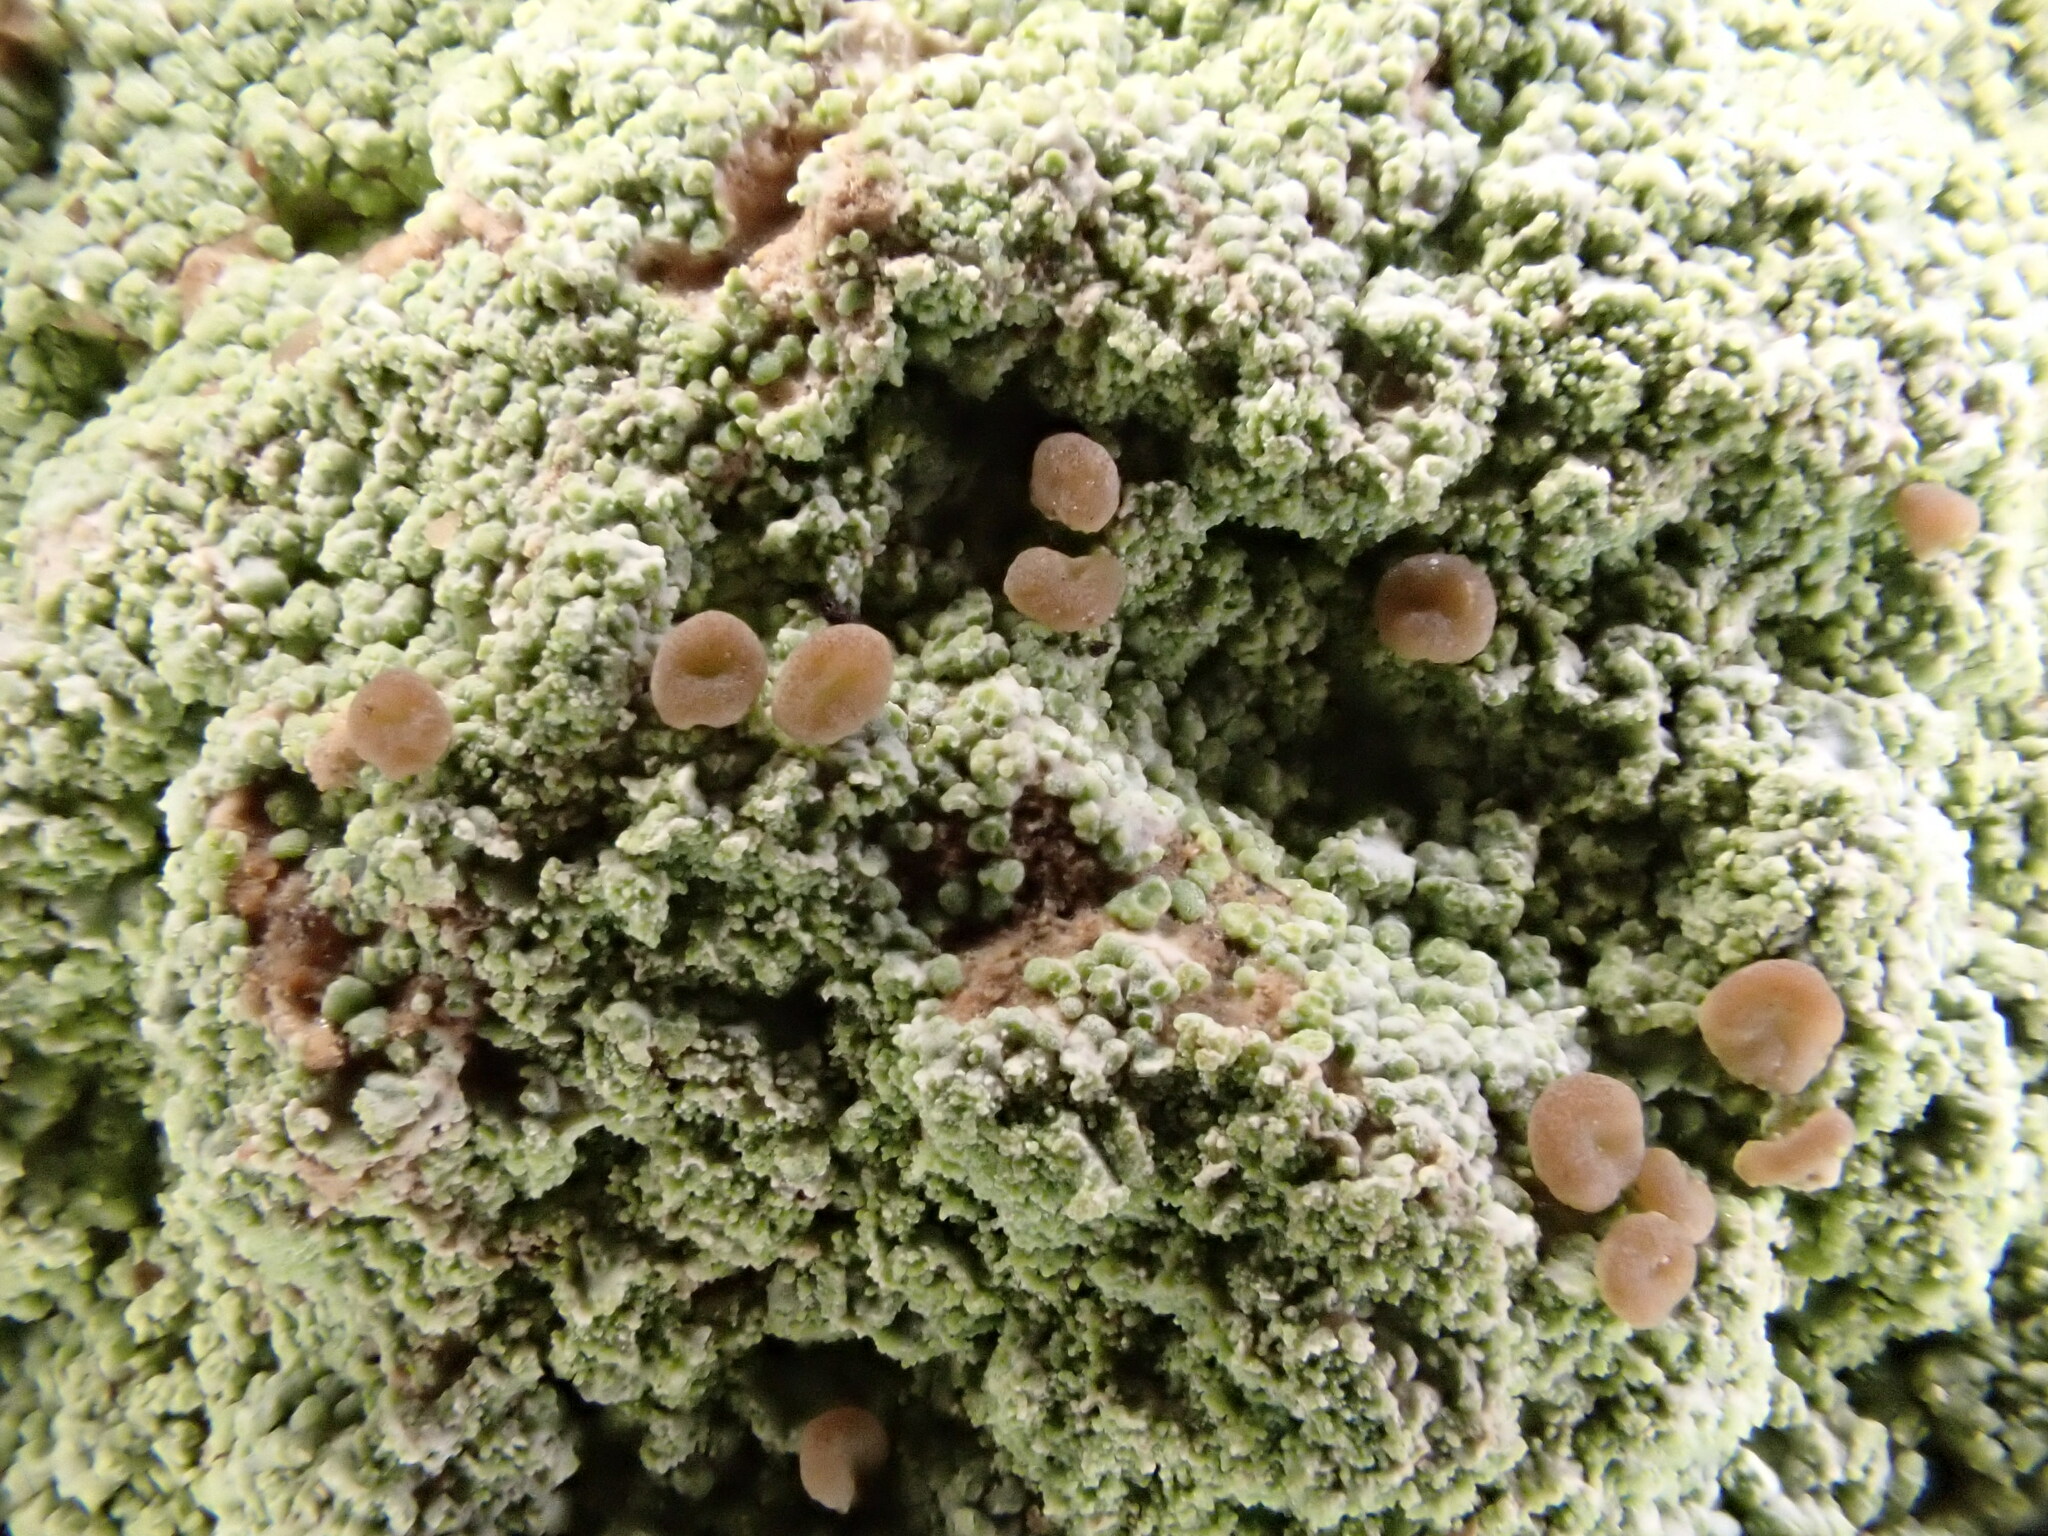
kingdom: Fungi
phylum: Ascomycota
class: Lecanoromycetes
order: Baeomycetales
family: Baeomycetaceae
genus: Baeomyces
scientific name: Baeomyces rufus
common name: Brown beret lichen
